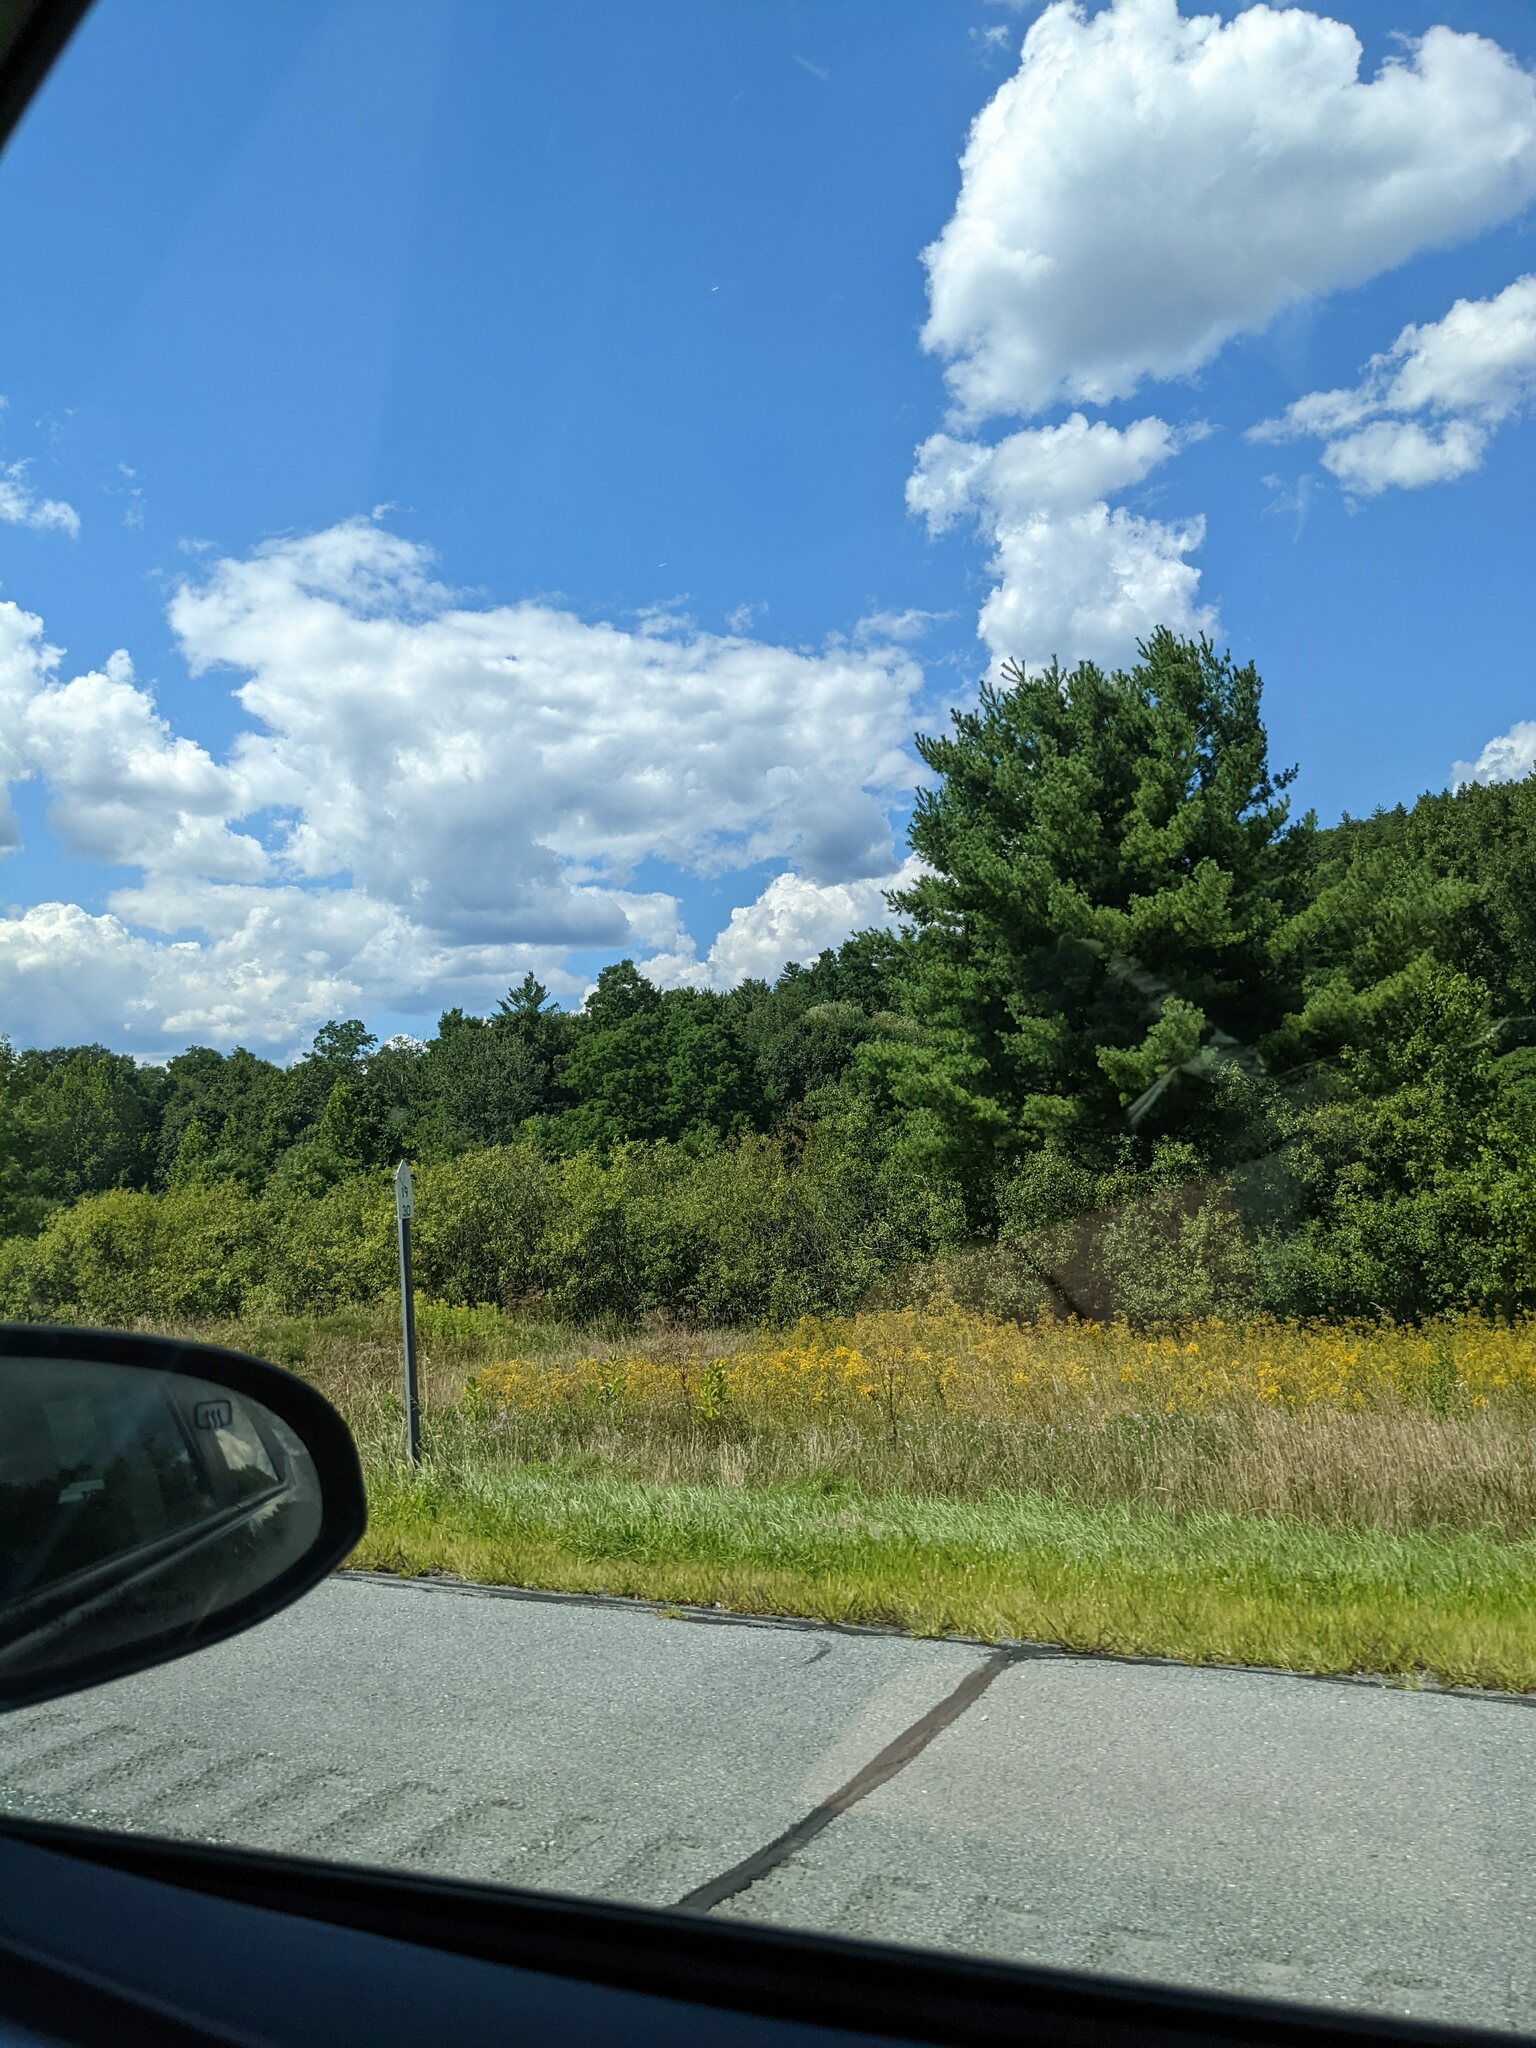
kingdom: Plantae
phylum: Tracheophyta
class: Pinopsida
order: Pinales
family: Pinaceae
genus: Pinus
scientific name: Pinus strobus
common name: Weymouth pine
